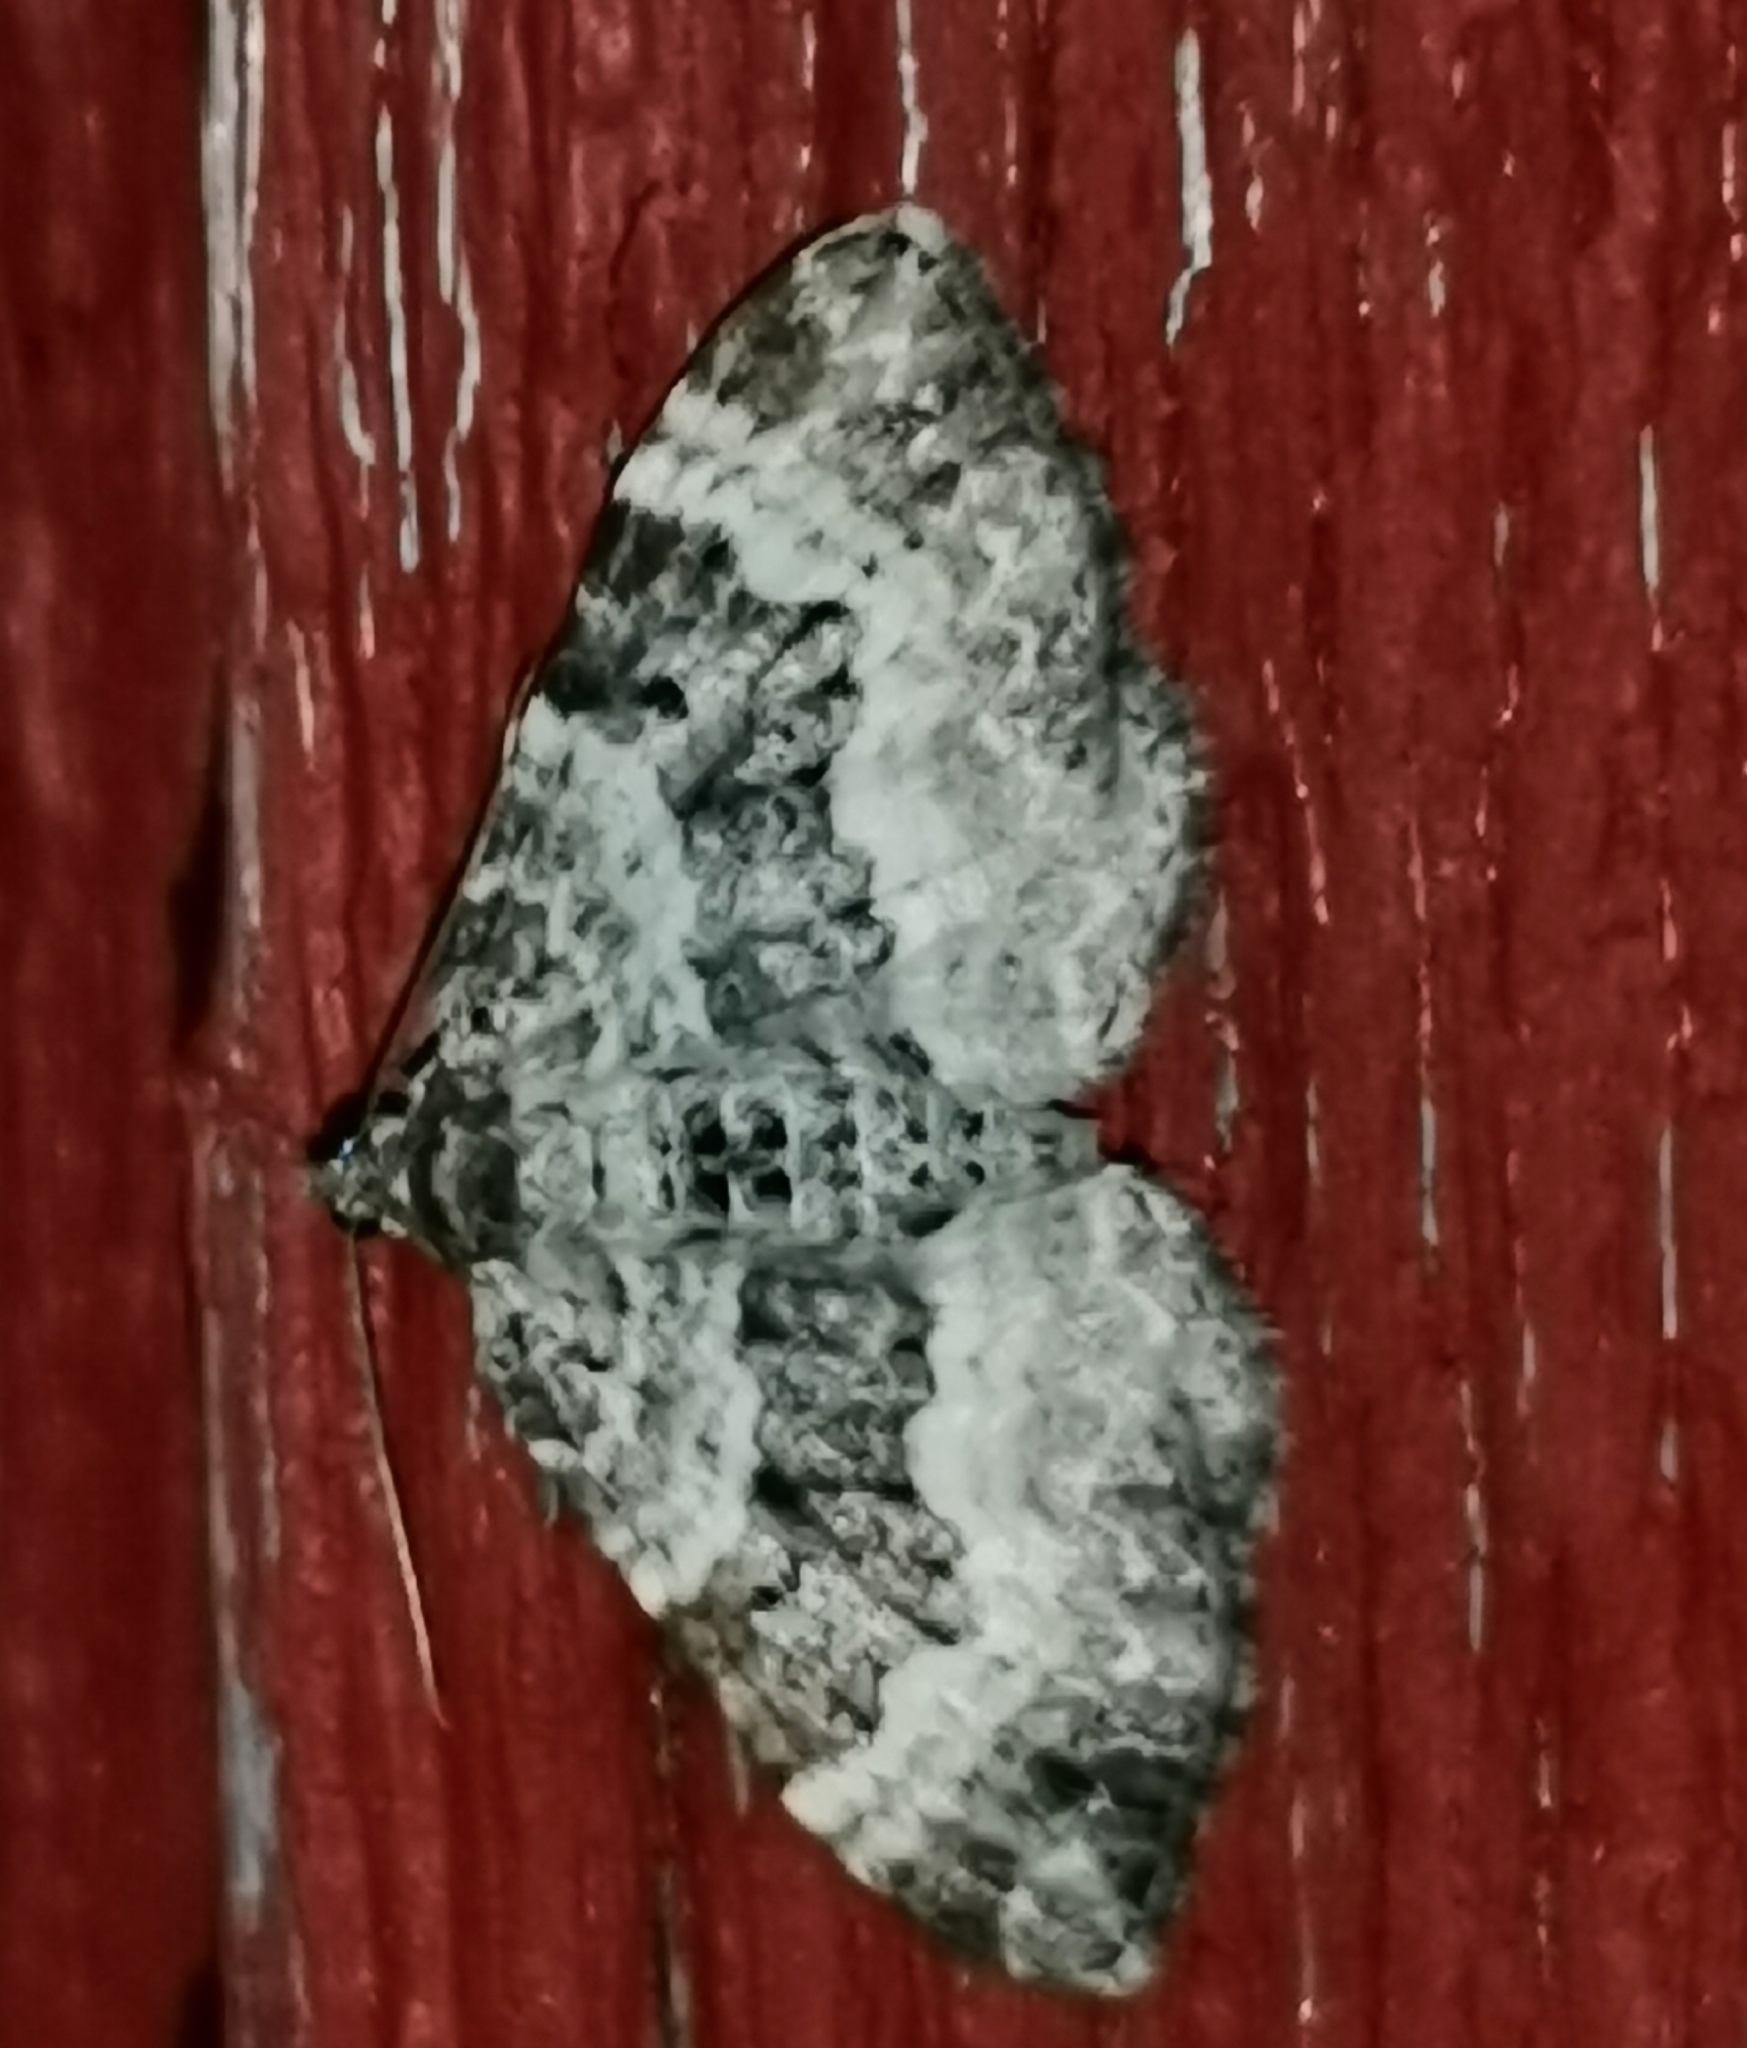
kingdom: Animalia
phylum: Arthropoda
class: Insecta
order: Lepidoptera
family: Geometridae
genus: Epirrhoe
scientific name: Epirrhoe alternata
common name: Common carpet
